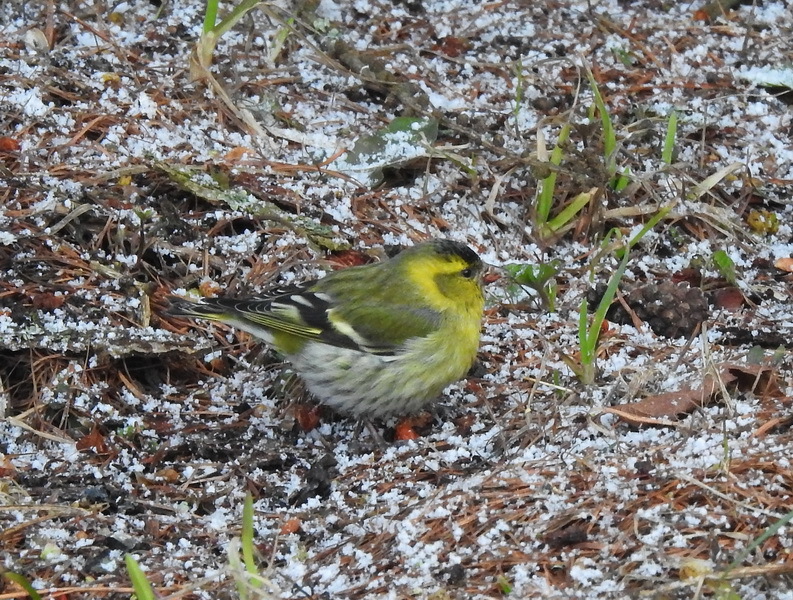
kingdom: Animalia
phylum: Chordata
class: Aves
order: Passeriformes
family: Fringillidae
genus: Spinus
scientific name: Spinus spinus
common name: Eurasian siskin
